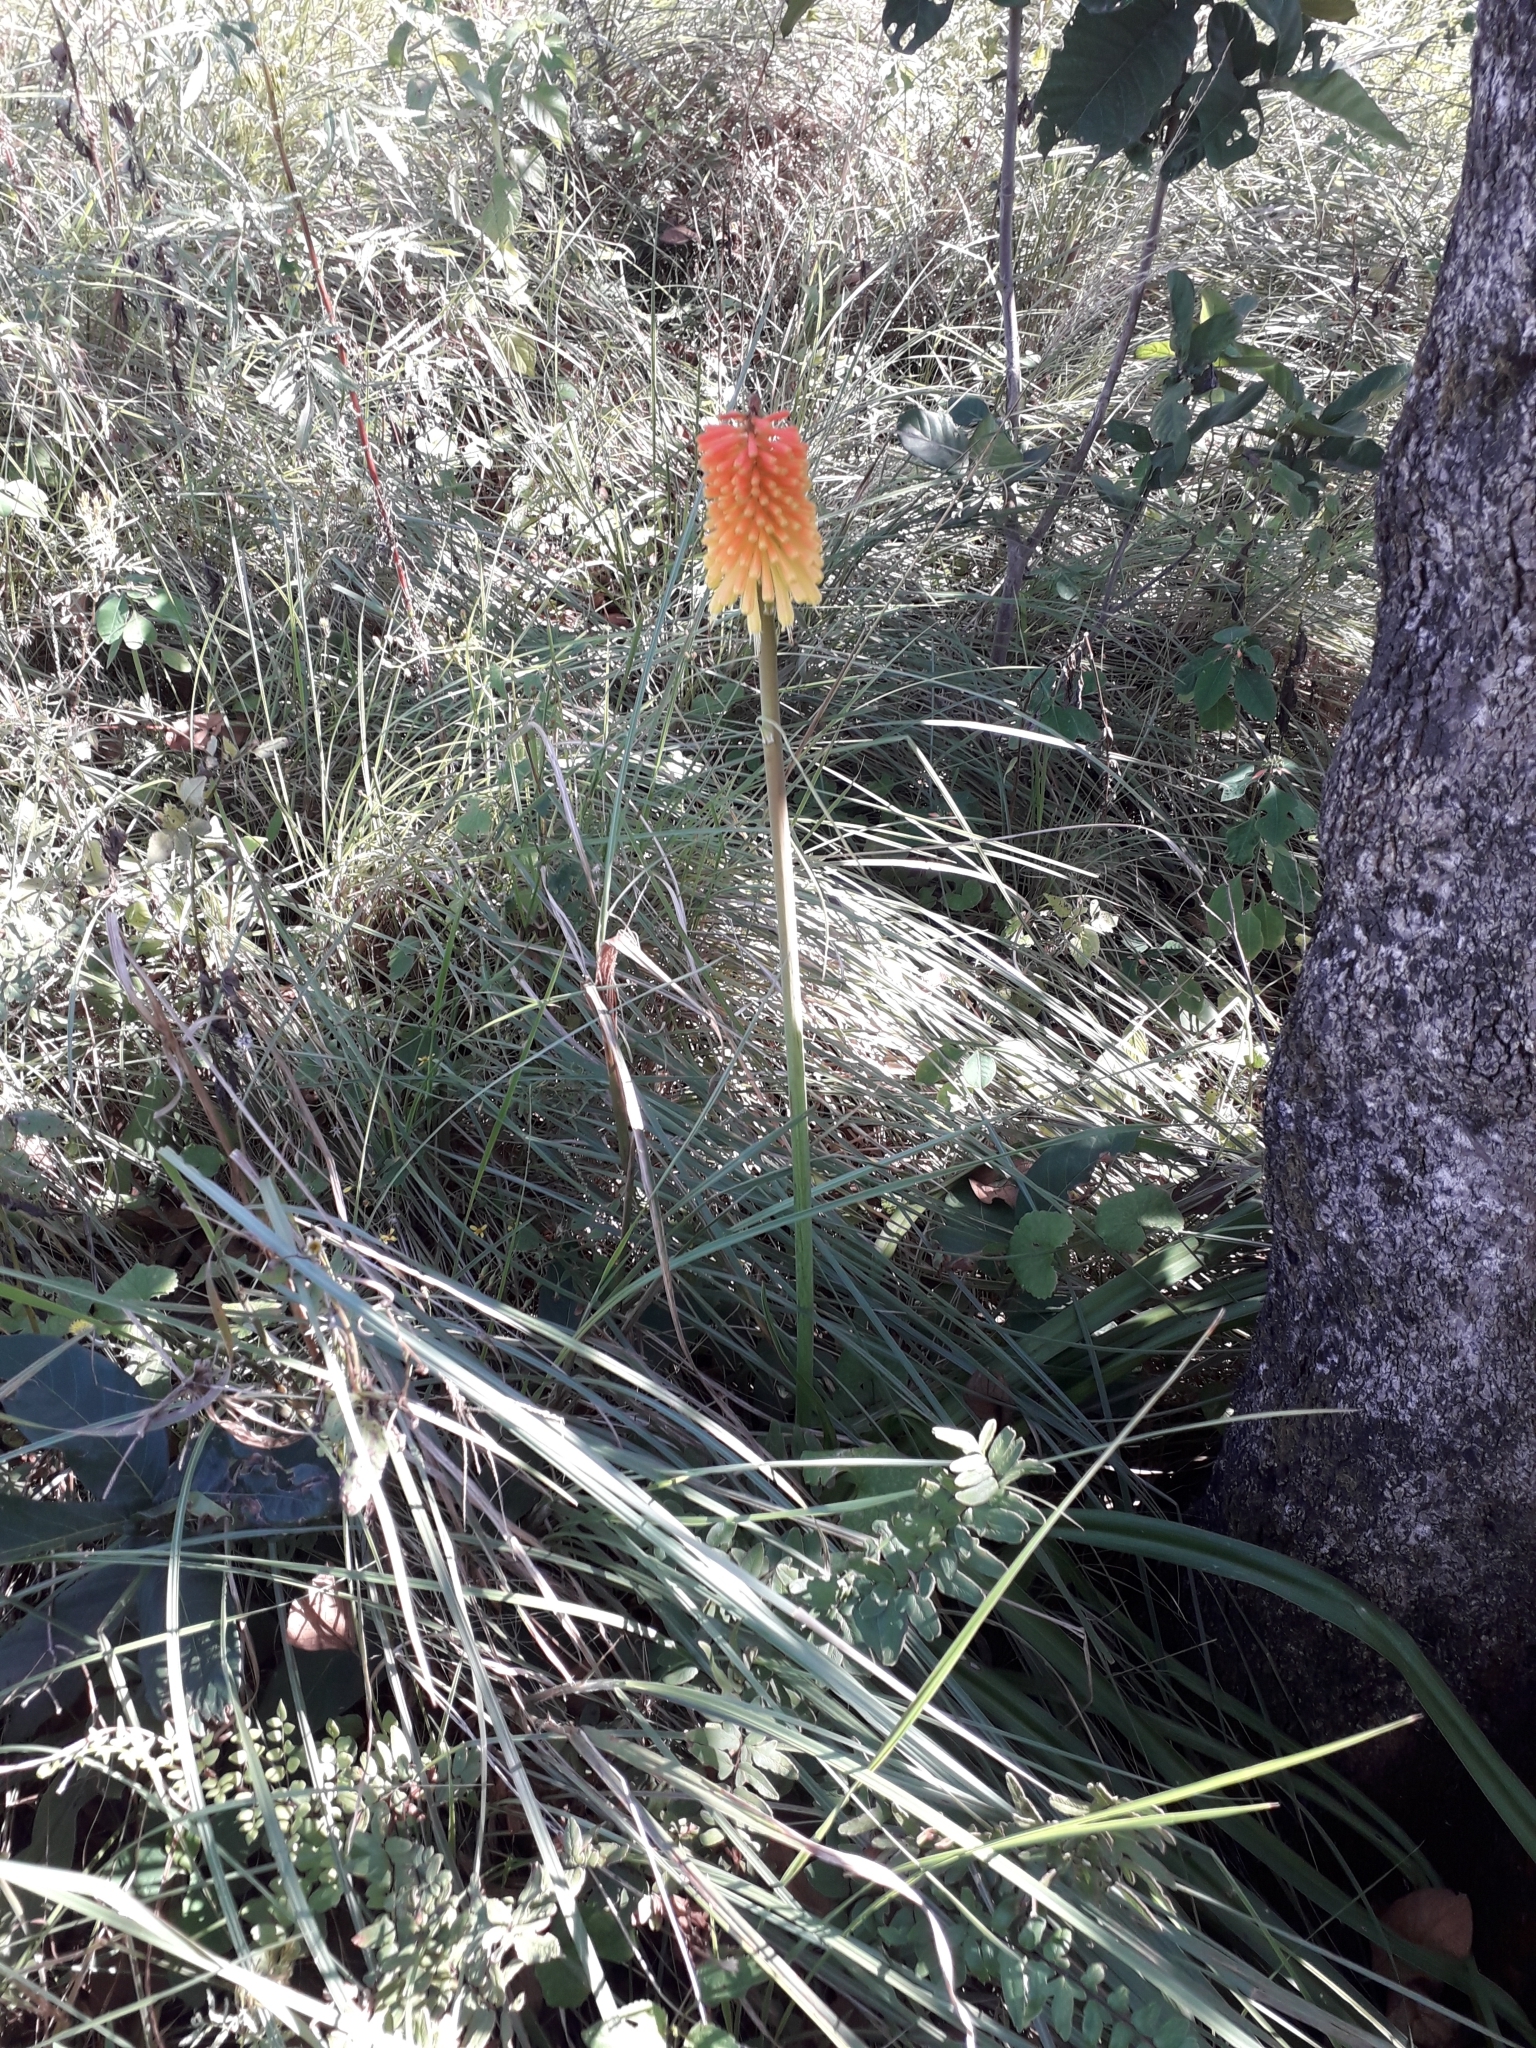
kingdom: Plantae
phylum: Tracheophyta
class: Liliopsida
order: Asparagales
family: Asphodelaceae
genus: Kniphofia
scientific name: Kniphofia uvaria
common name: Red-hot-poker
